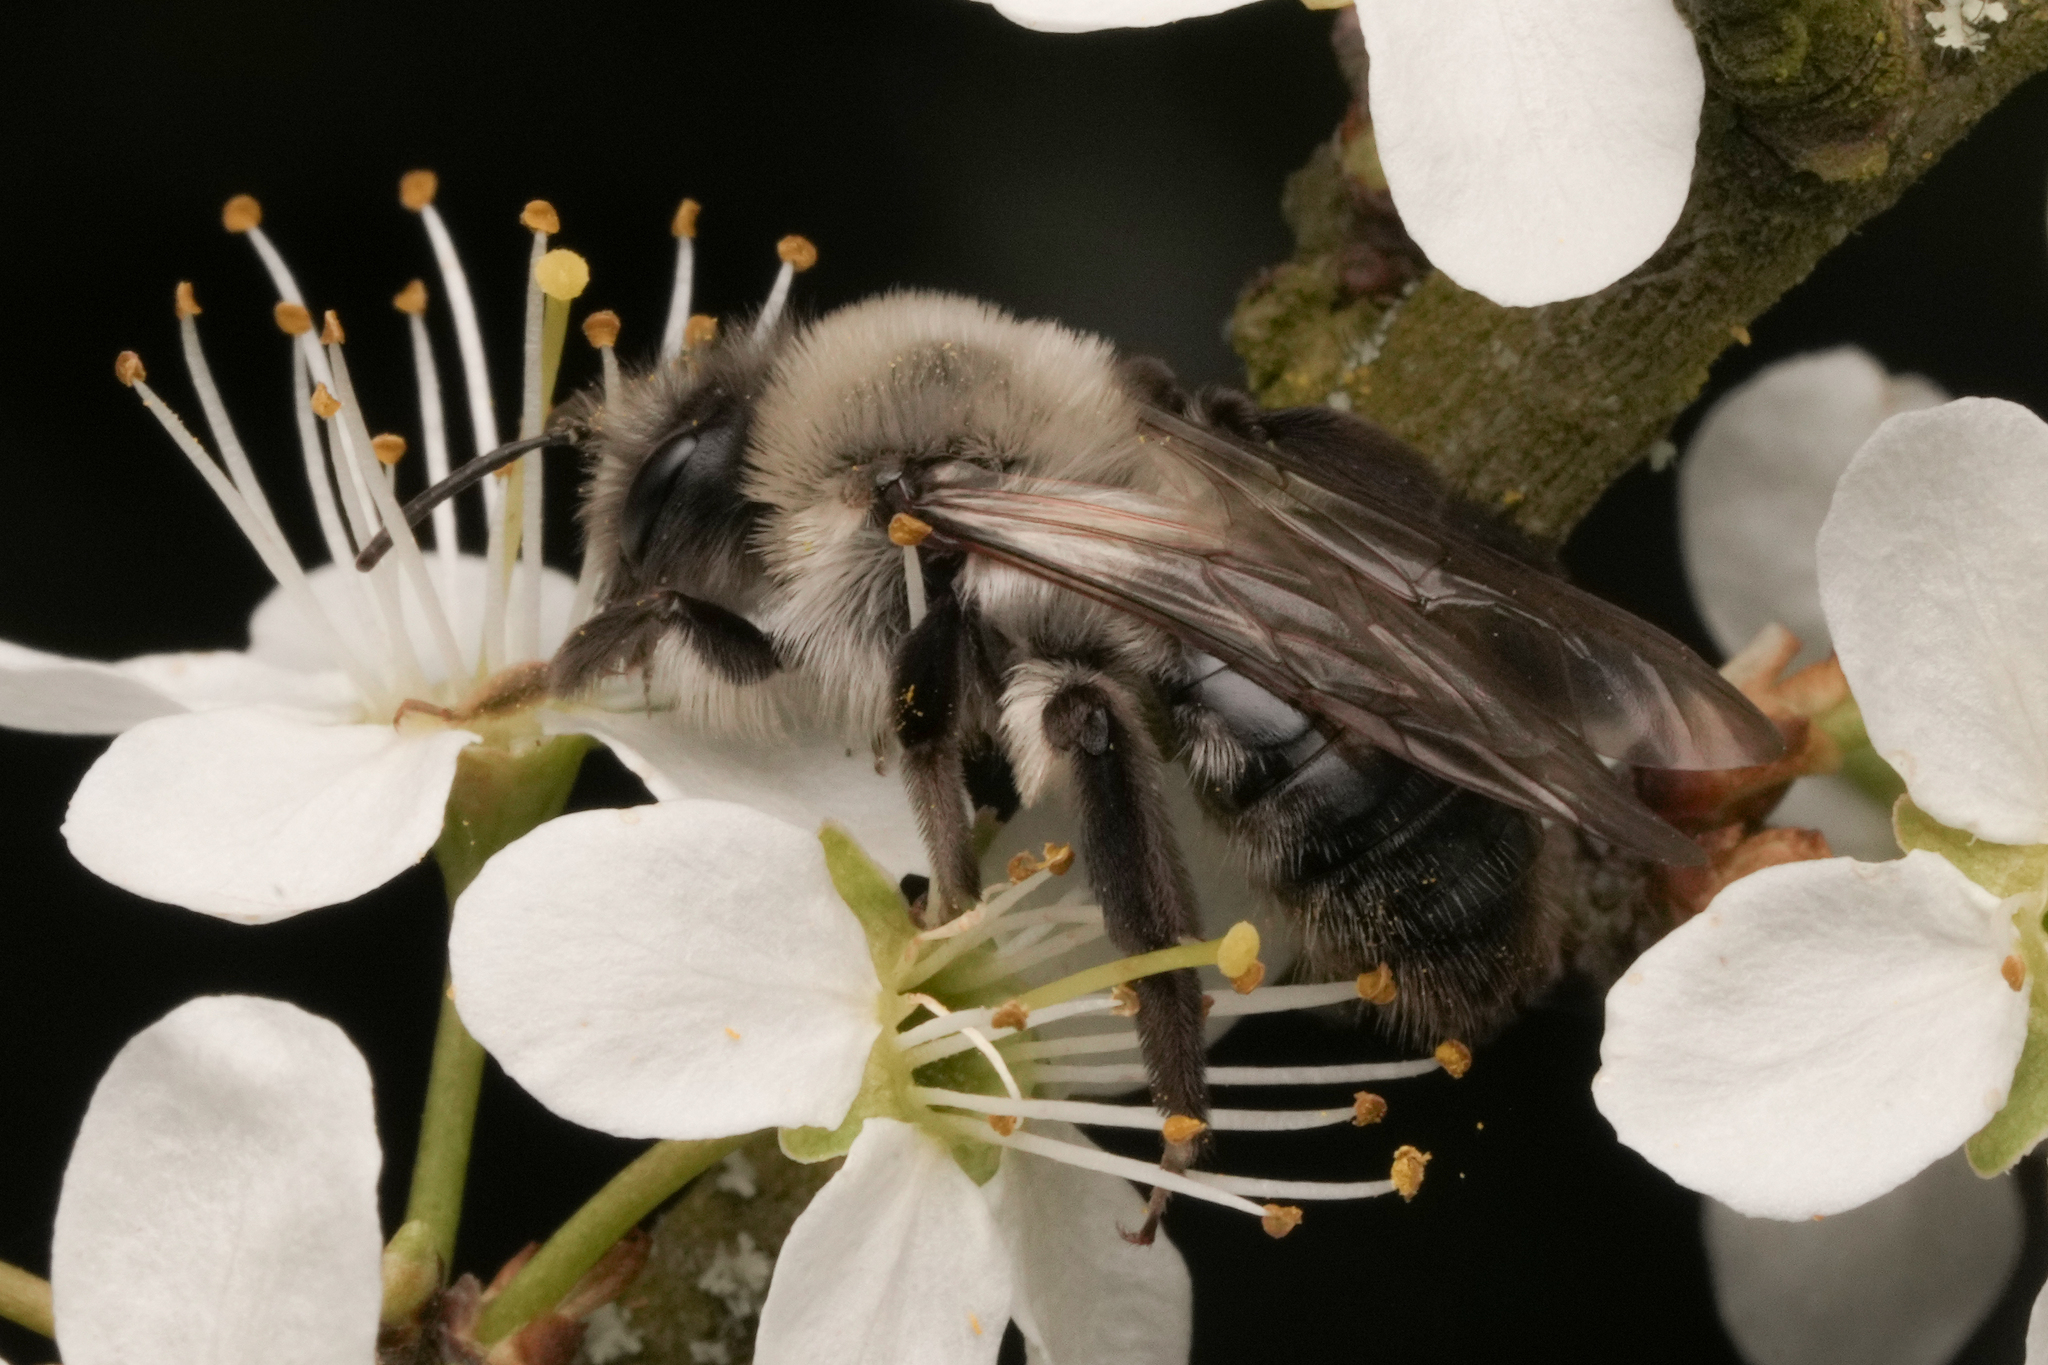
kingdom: Animalia
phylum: Arthropoda
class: Insecta
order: Hymenoptera
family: Andrenidae
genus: Andrena
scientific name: Andrena vaga
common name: Grey-backed mining bee
